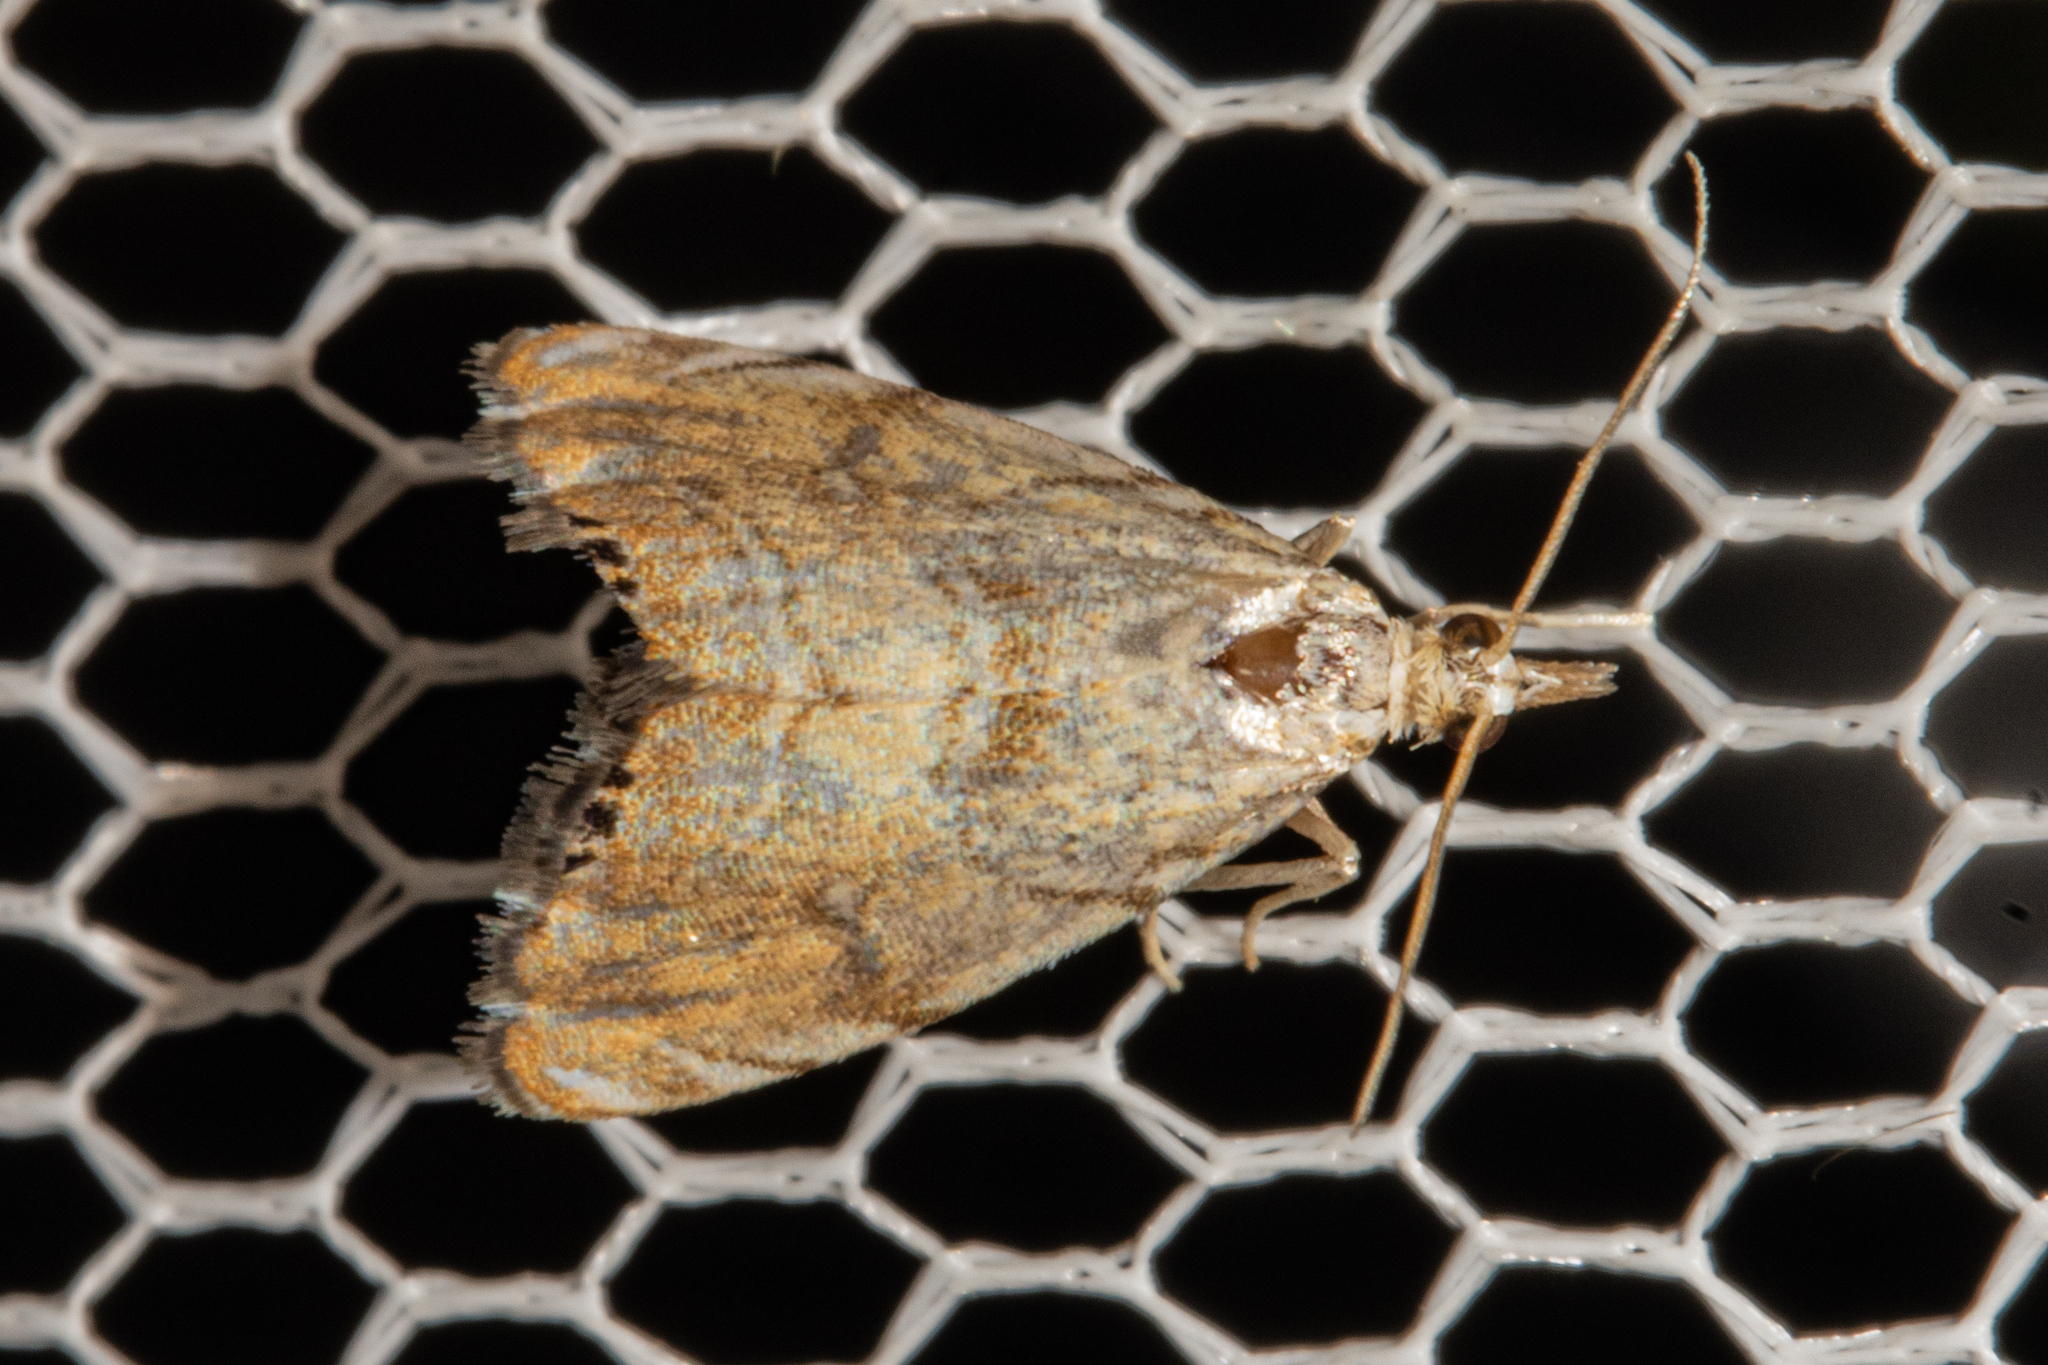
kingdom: Animalia
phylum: Arthropoda
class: Insecta
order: Lepidoptera
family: Crambidae
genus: Glaucocharis
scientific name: Glaucocharis selenaea
